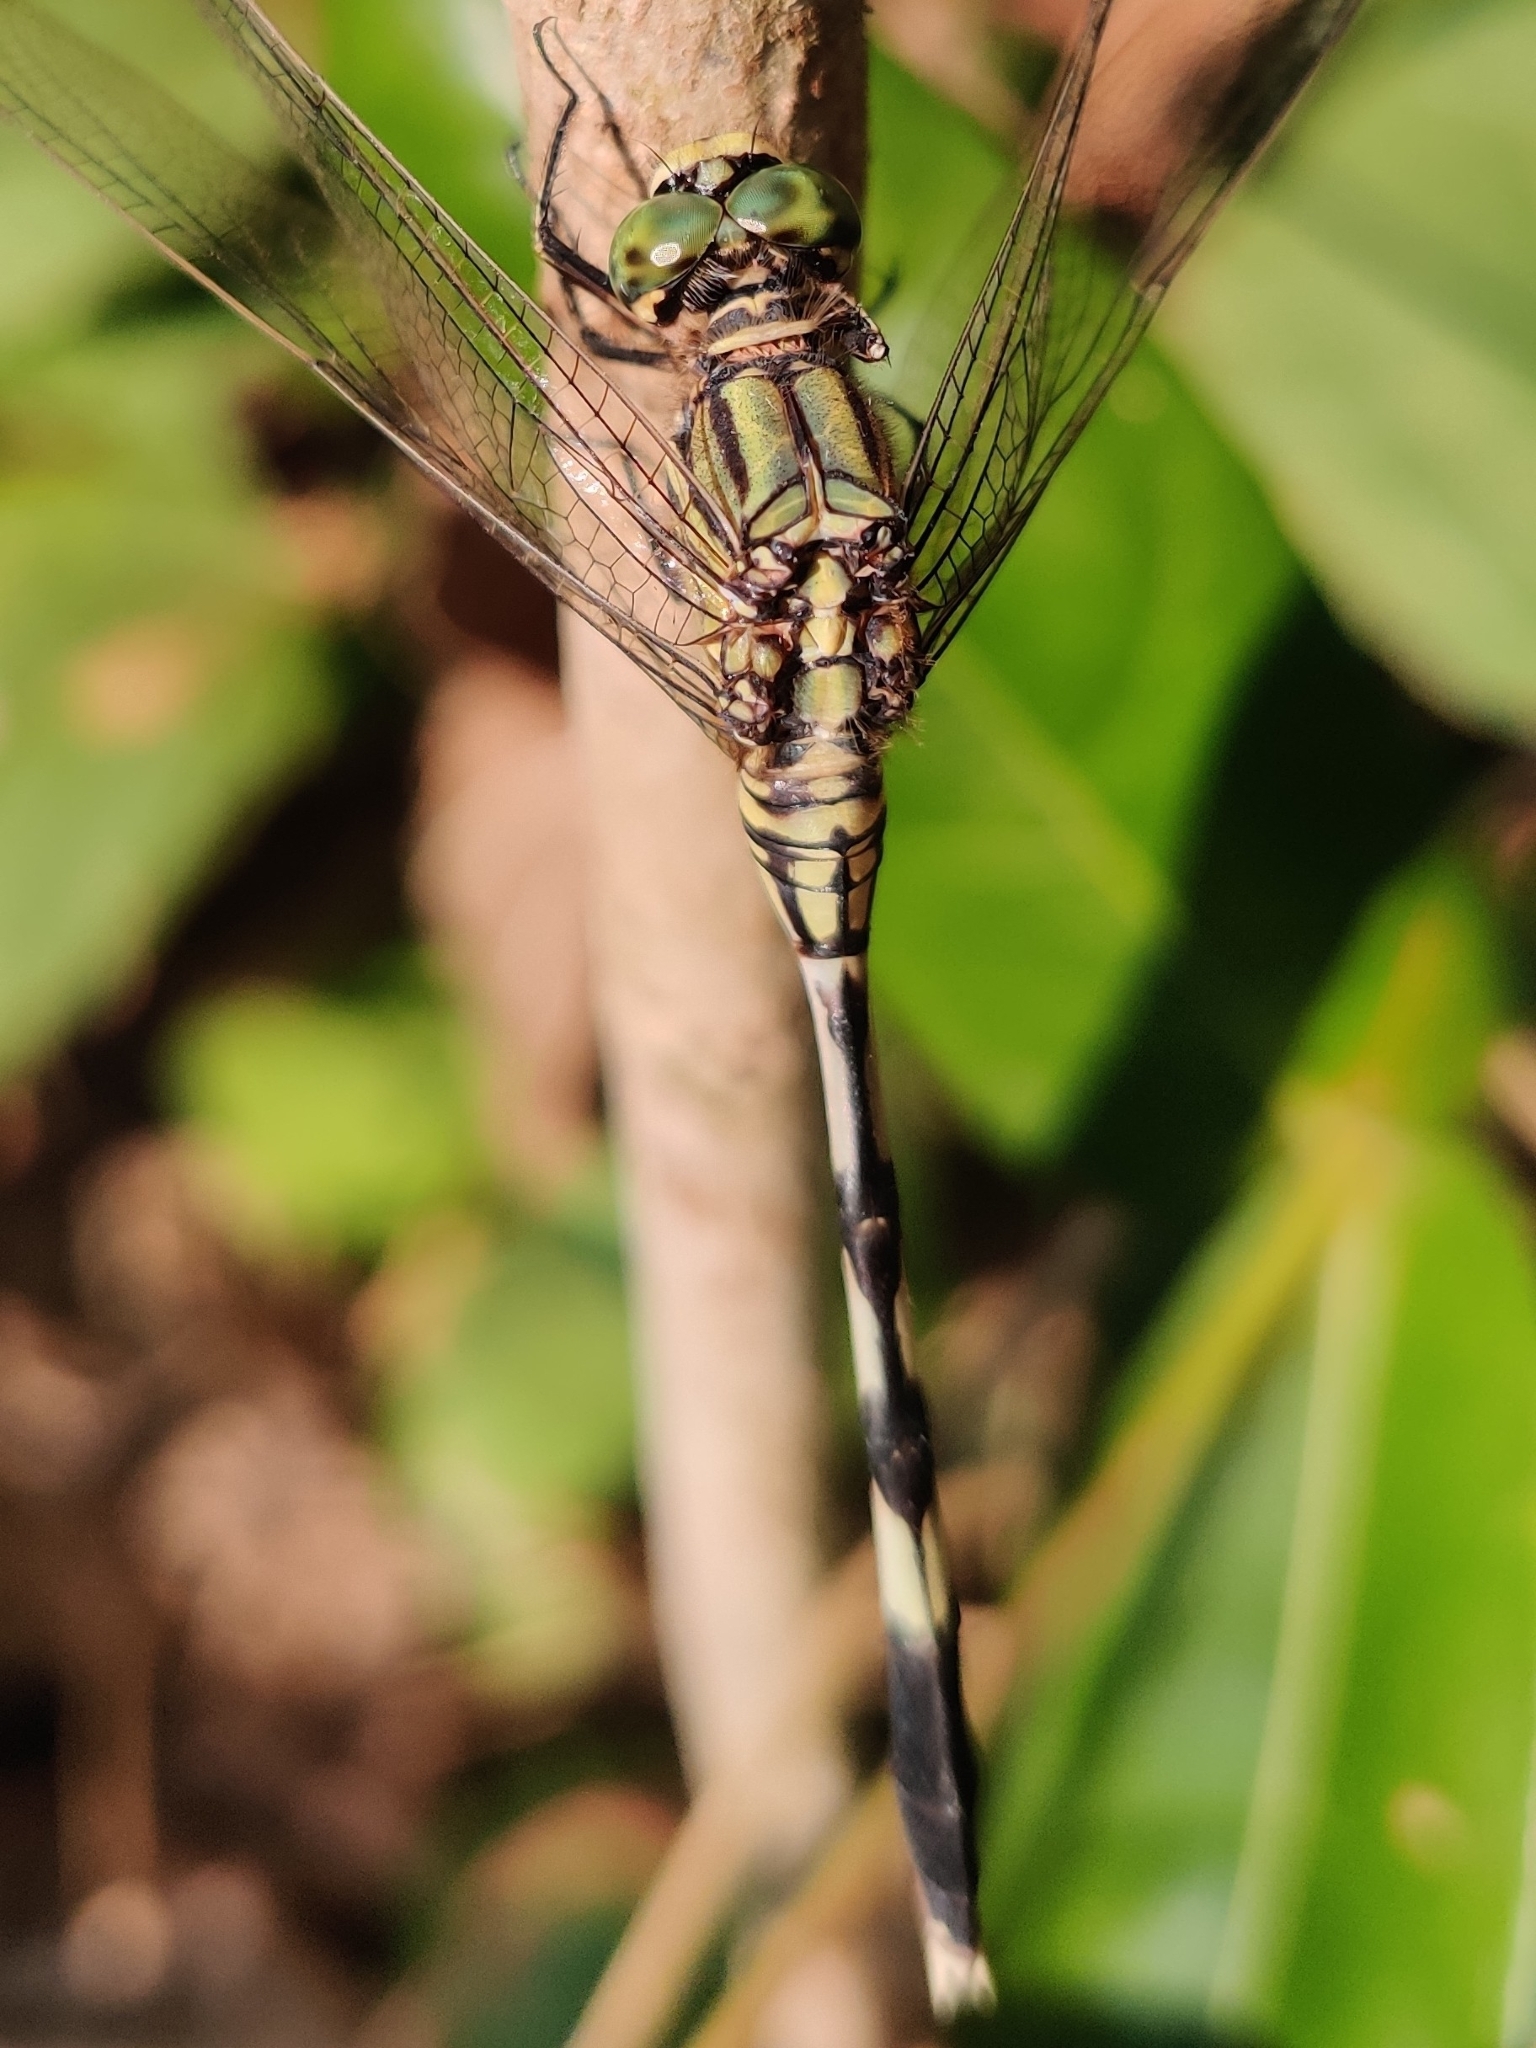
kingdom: Animalia
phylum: Arthropoda
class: Insecta
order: Odonata
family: Libellulidae
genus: Orthetrum
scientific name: Orthetrum sabina
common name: Slender skimmer
